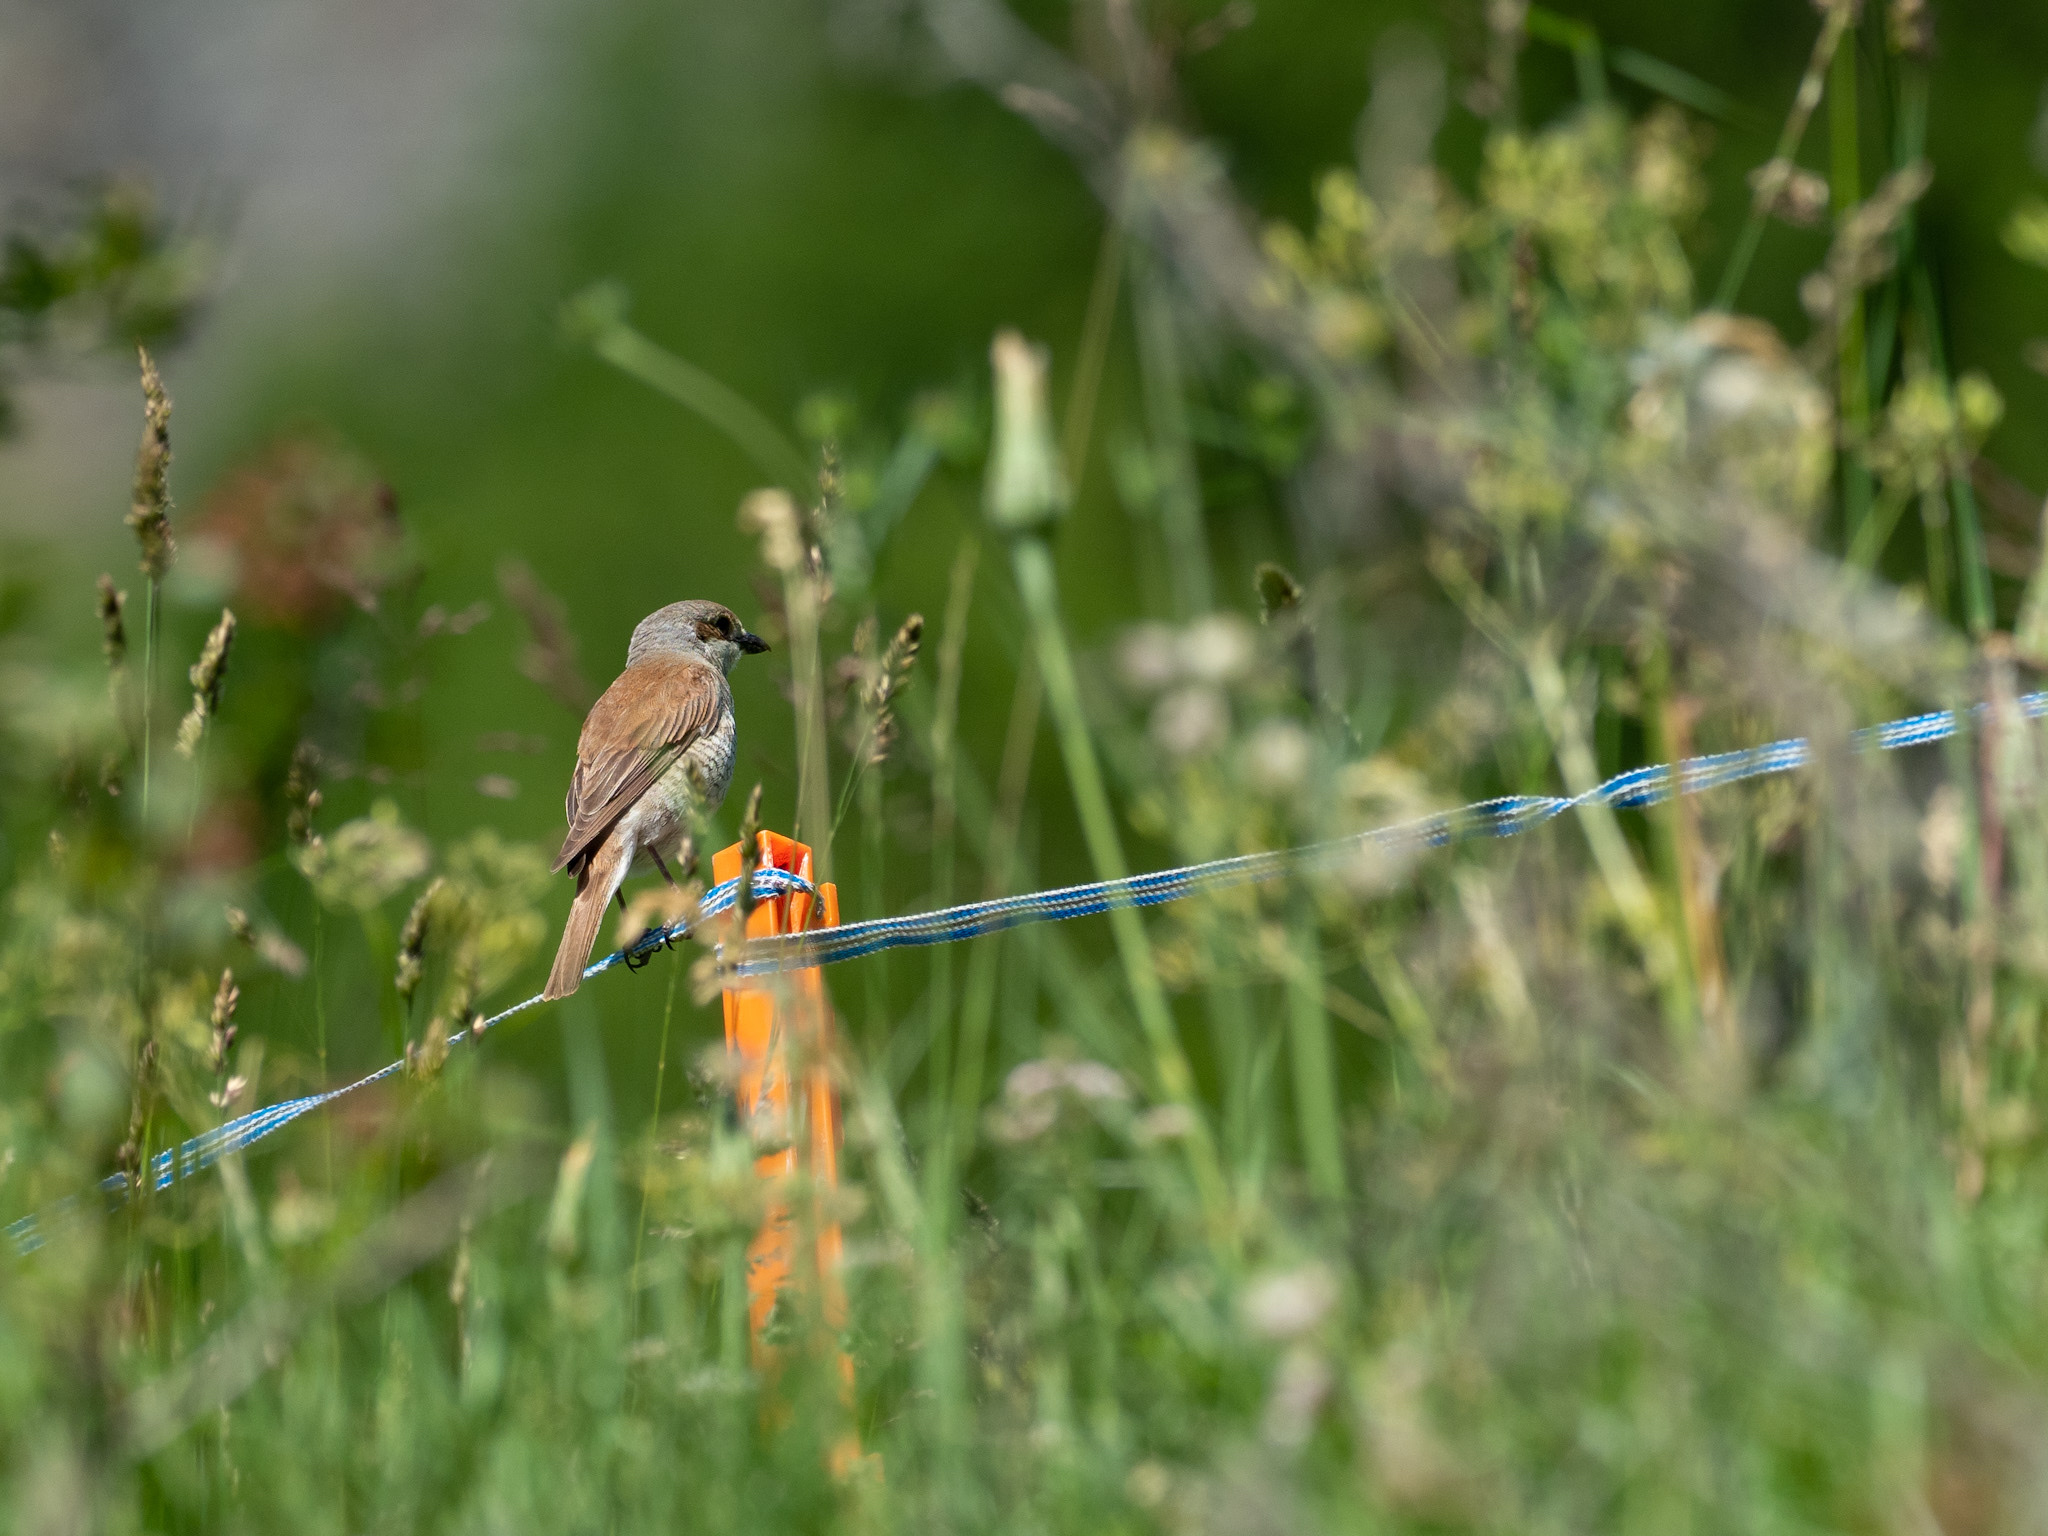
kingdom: Animalia
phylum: Chordata
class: Aves
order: Passeriformes
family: Laniidae
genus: Lanius
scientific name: Lanius collurio
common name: Red-backed shrike
